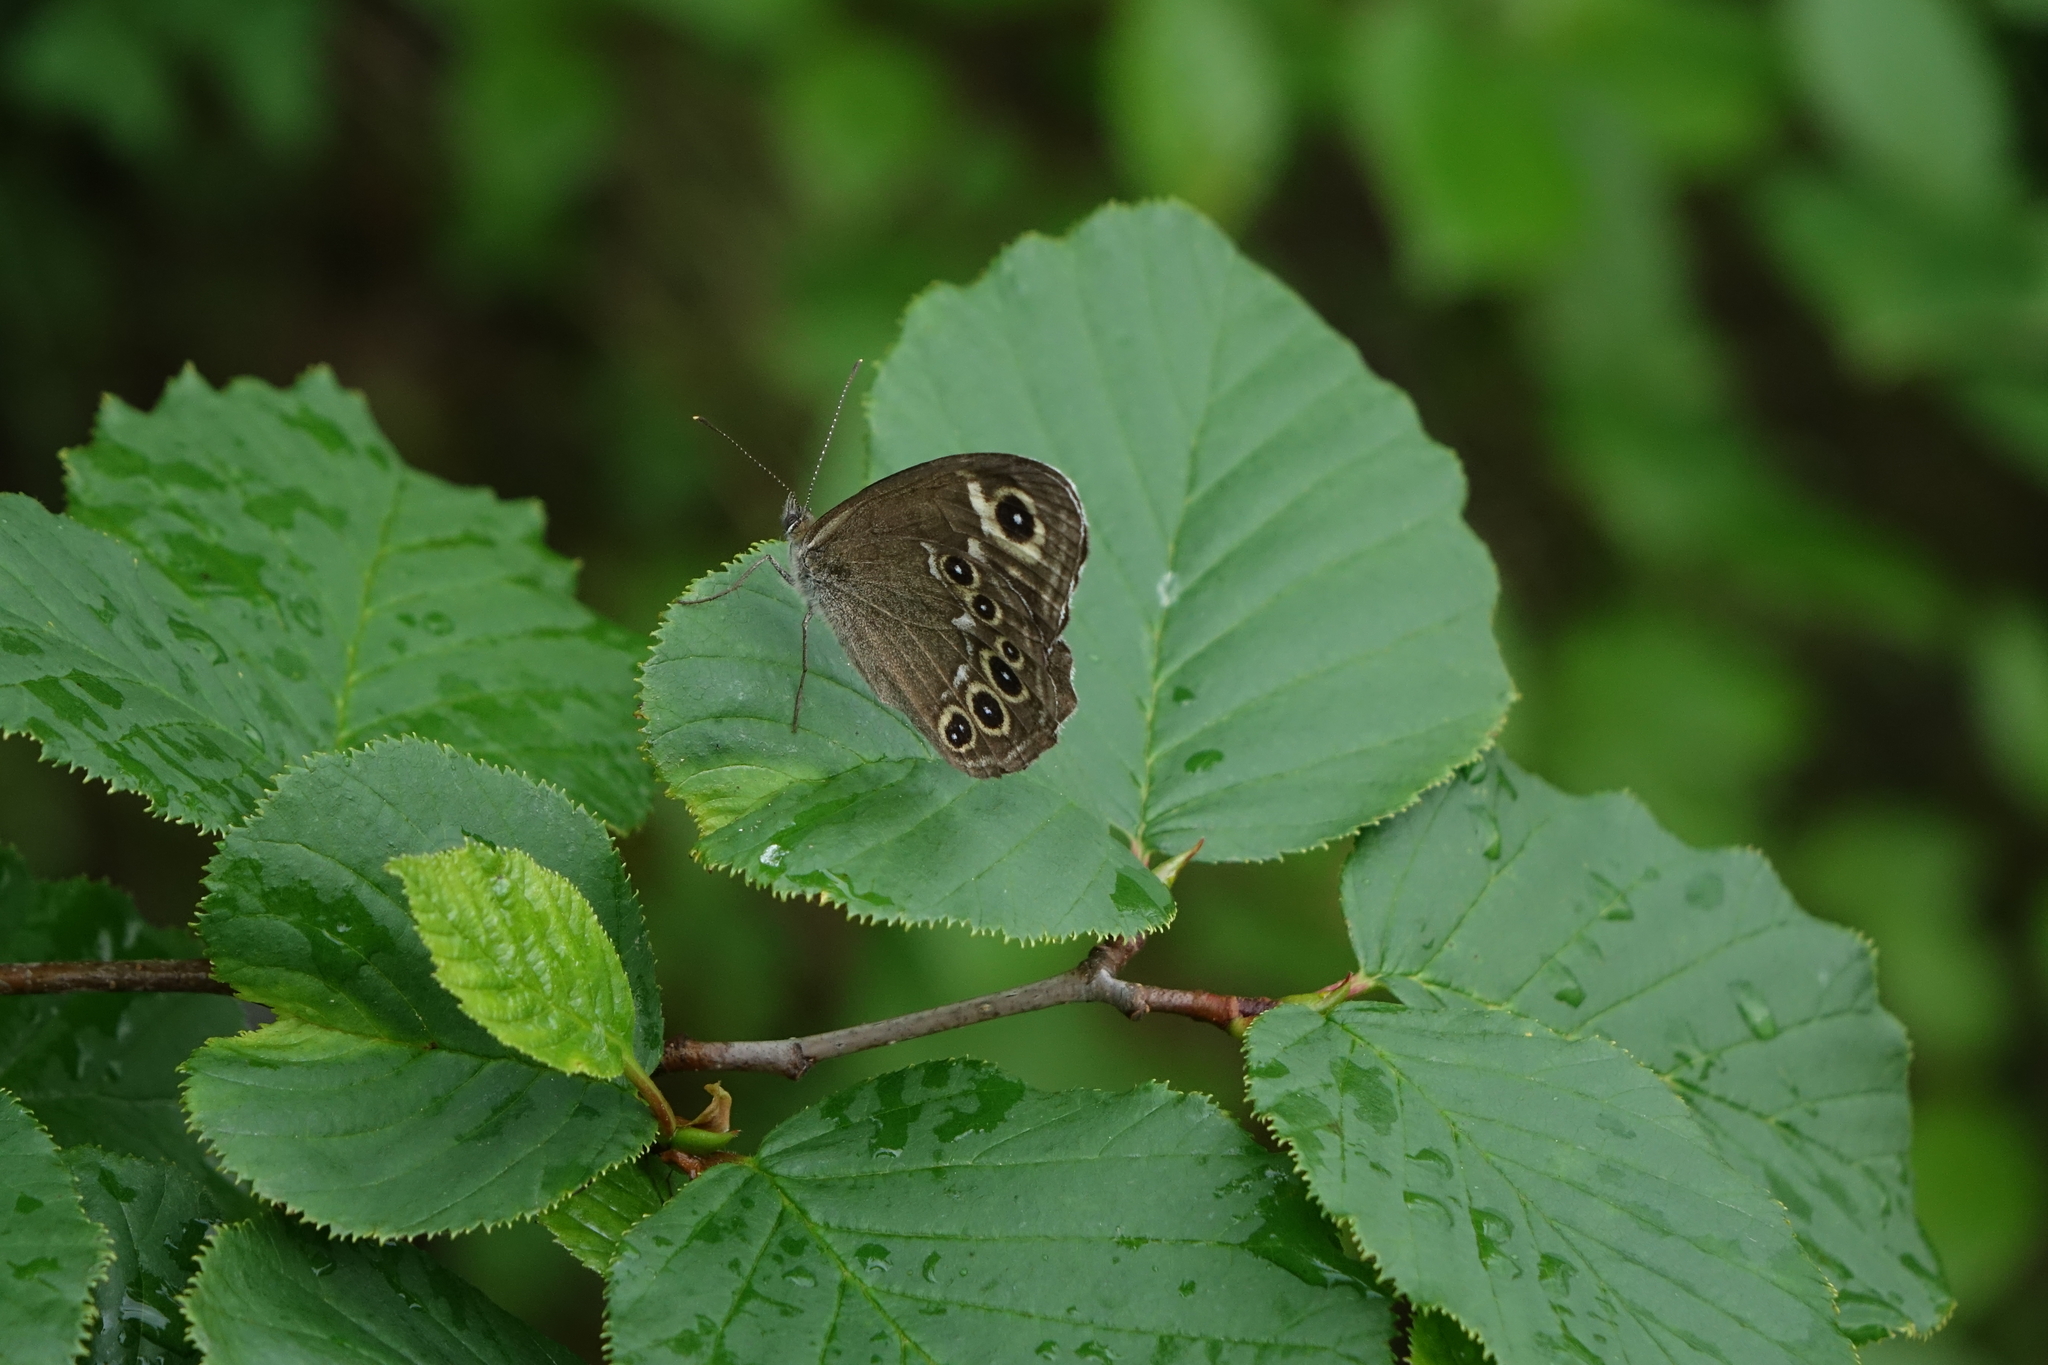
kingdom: Plantae
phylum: Tracheophyta
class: Magnoliopsida
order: Fagales
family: Betulaceae
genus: Alnus
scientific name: Alnus alnobetula
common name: Green alder
